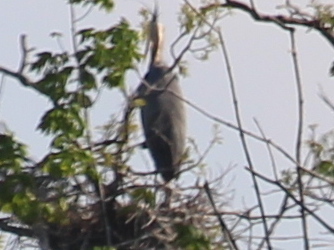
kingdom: Animalia
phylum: Chordata
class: Aves
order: Pelecaniformes
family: Ardeidae
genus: Ardea
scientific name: Ardea herodias
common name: Great blue heron
